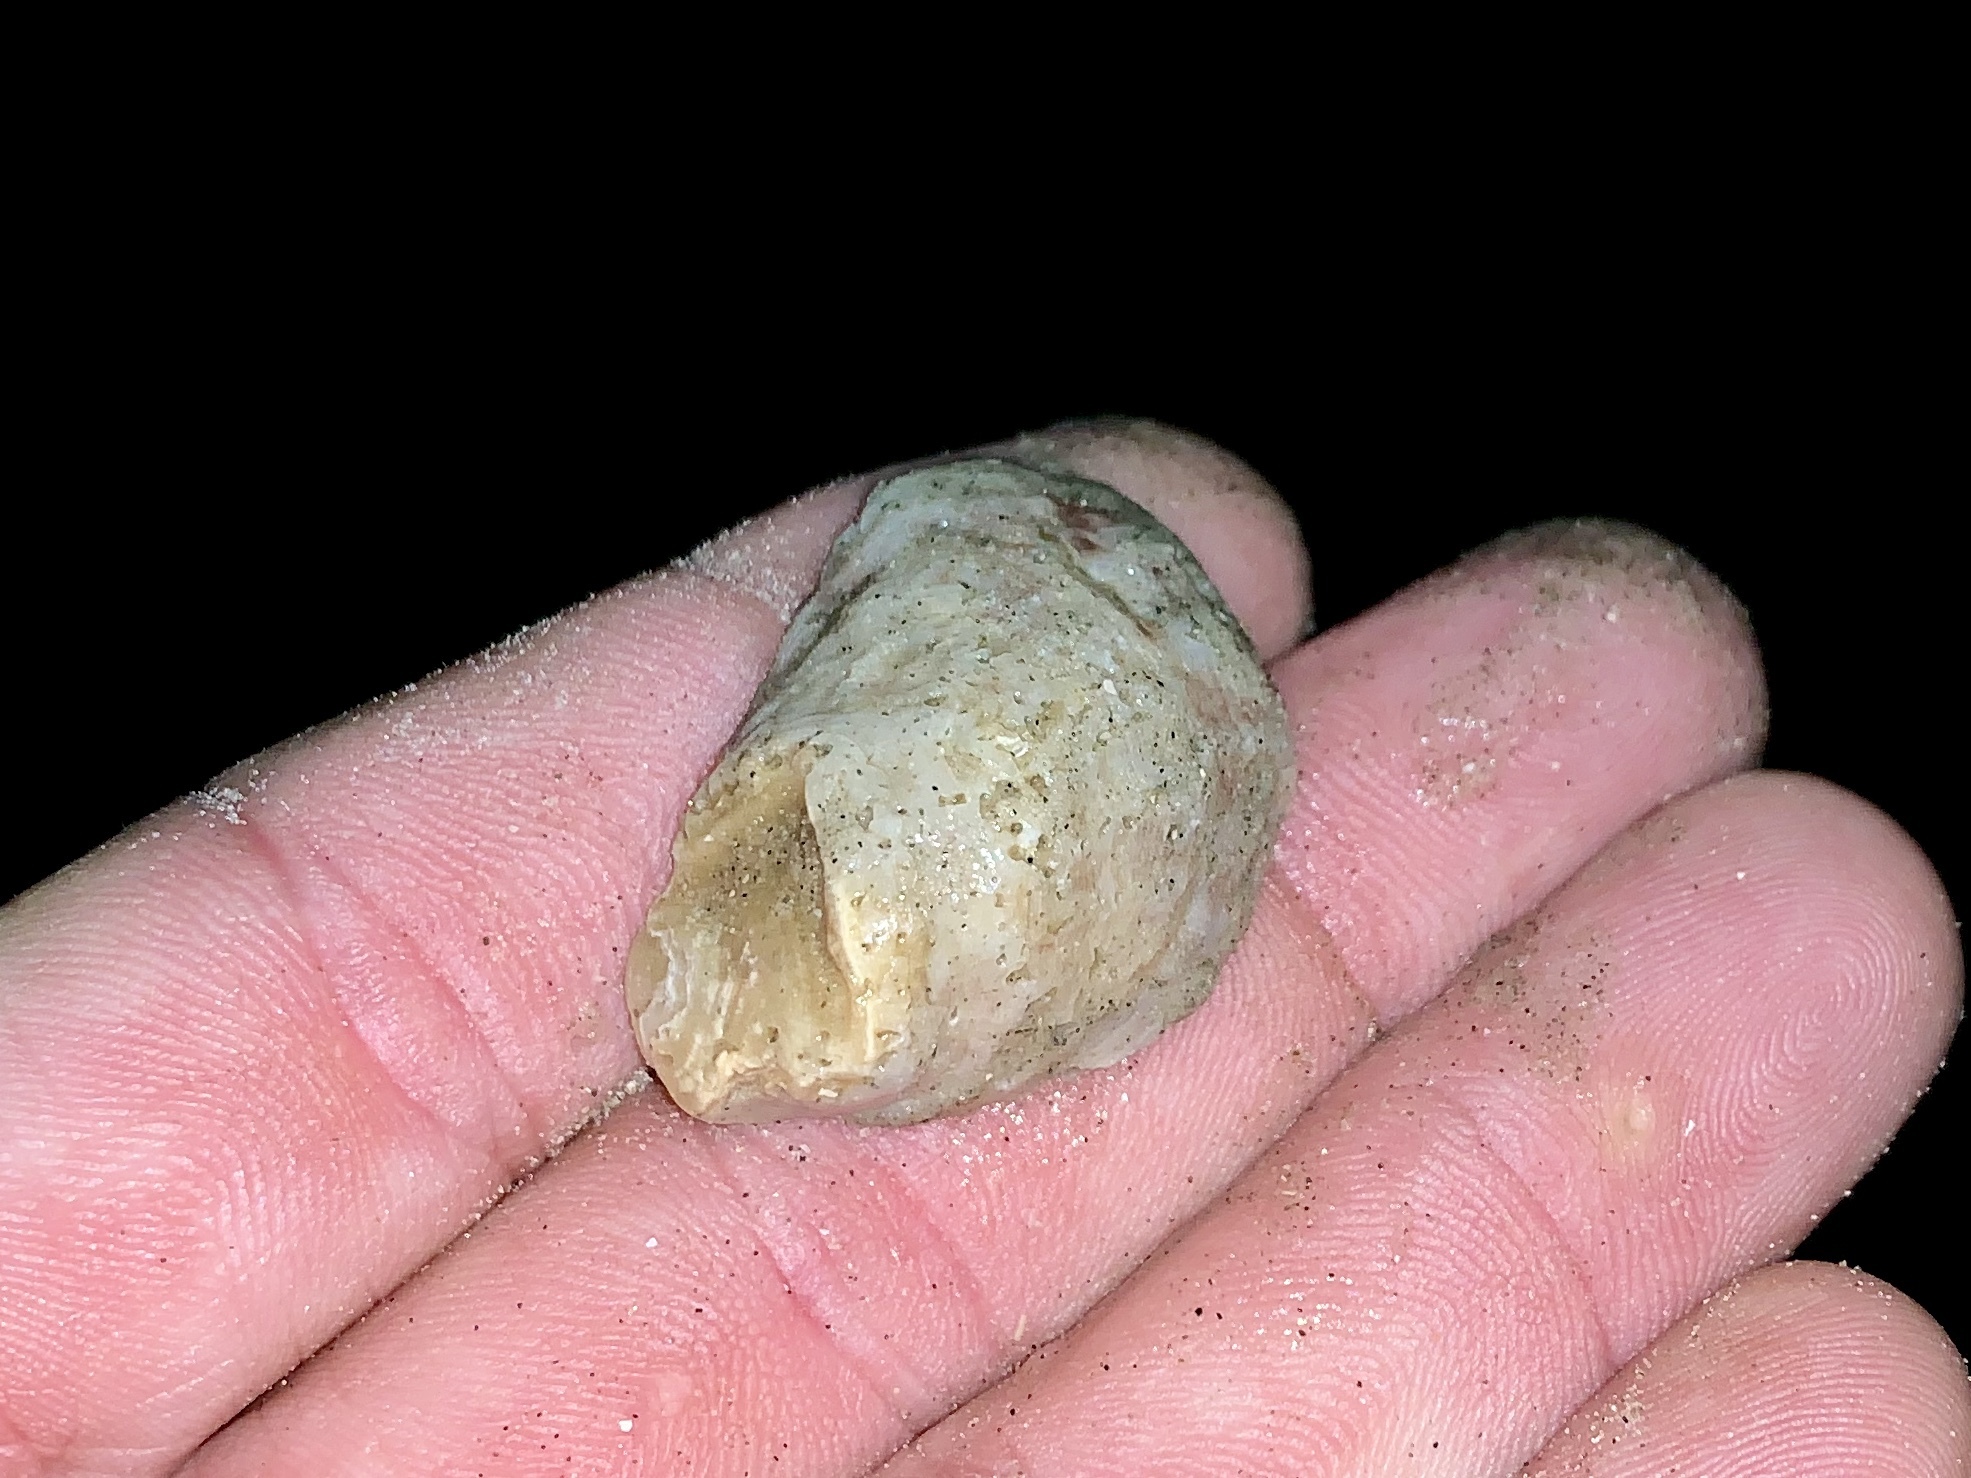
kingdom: Animalia
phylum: Mollusca
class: Bivalvia
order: Ostreida
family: Ostreidae
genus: Crassostrea
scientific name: Crassostrea virginica
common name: American oyster
